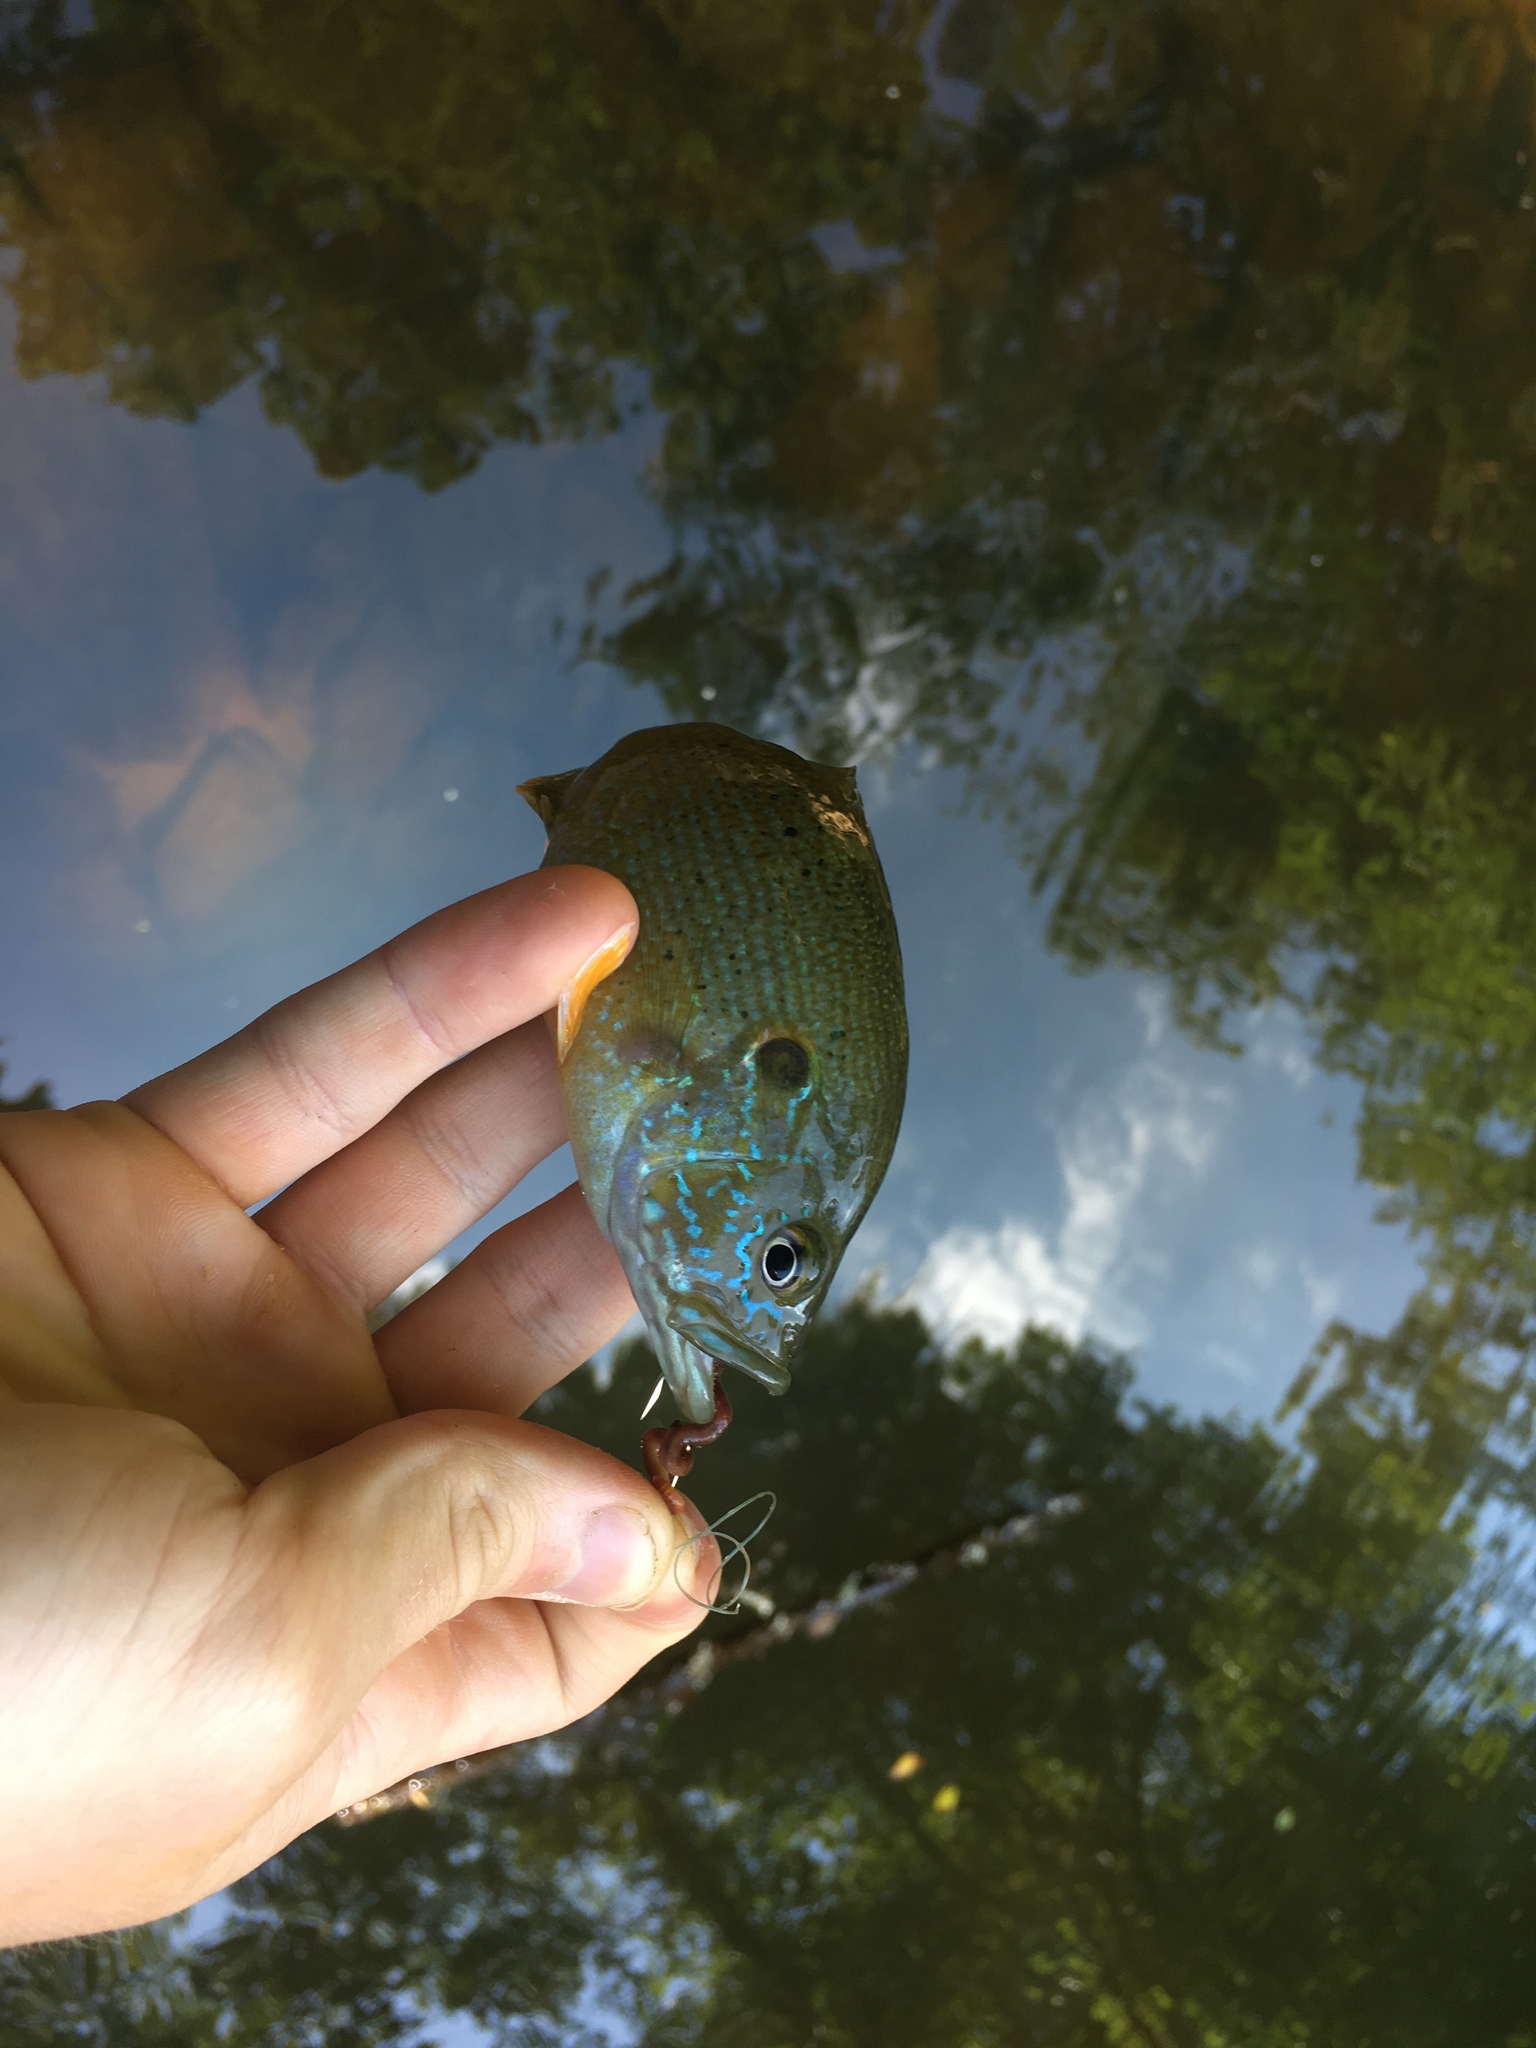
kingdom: Animalia
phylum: Chordata
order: Perciformes
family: Centrarchidae
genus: Lepomis
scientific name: Lepomis cyanellus
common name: Green sunfish
